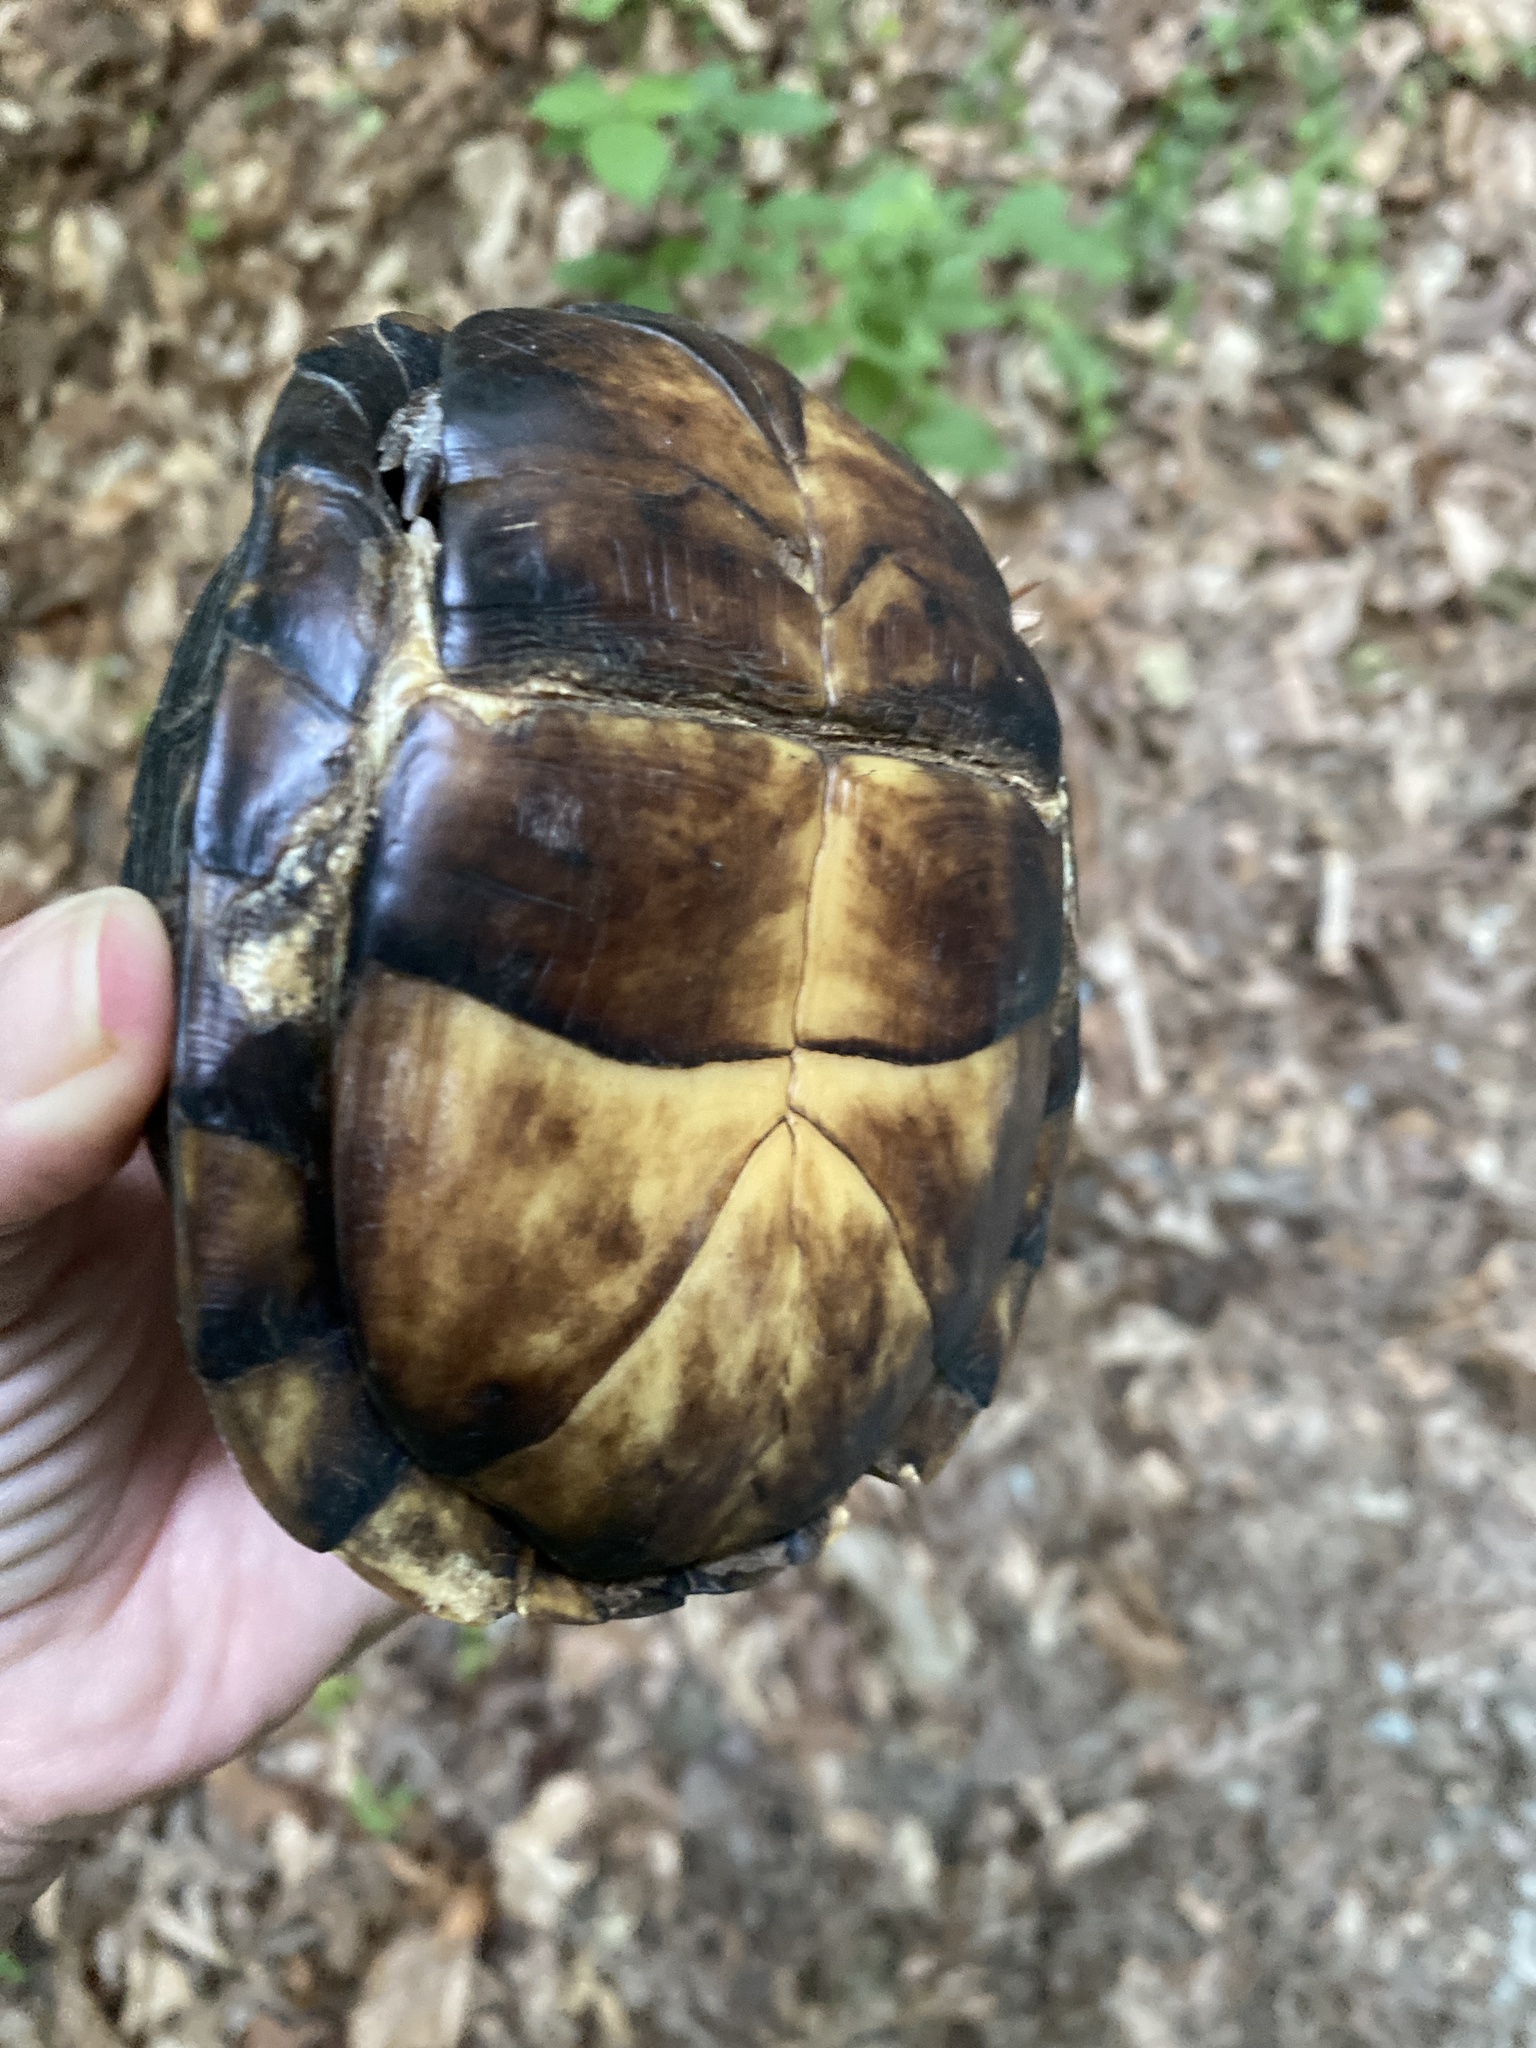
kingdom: Animalia
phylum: Chordata
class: Testudines
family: Emydidae
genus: Terrapene
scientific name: Terrapene carolina
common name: Common box turtle
